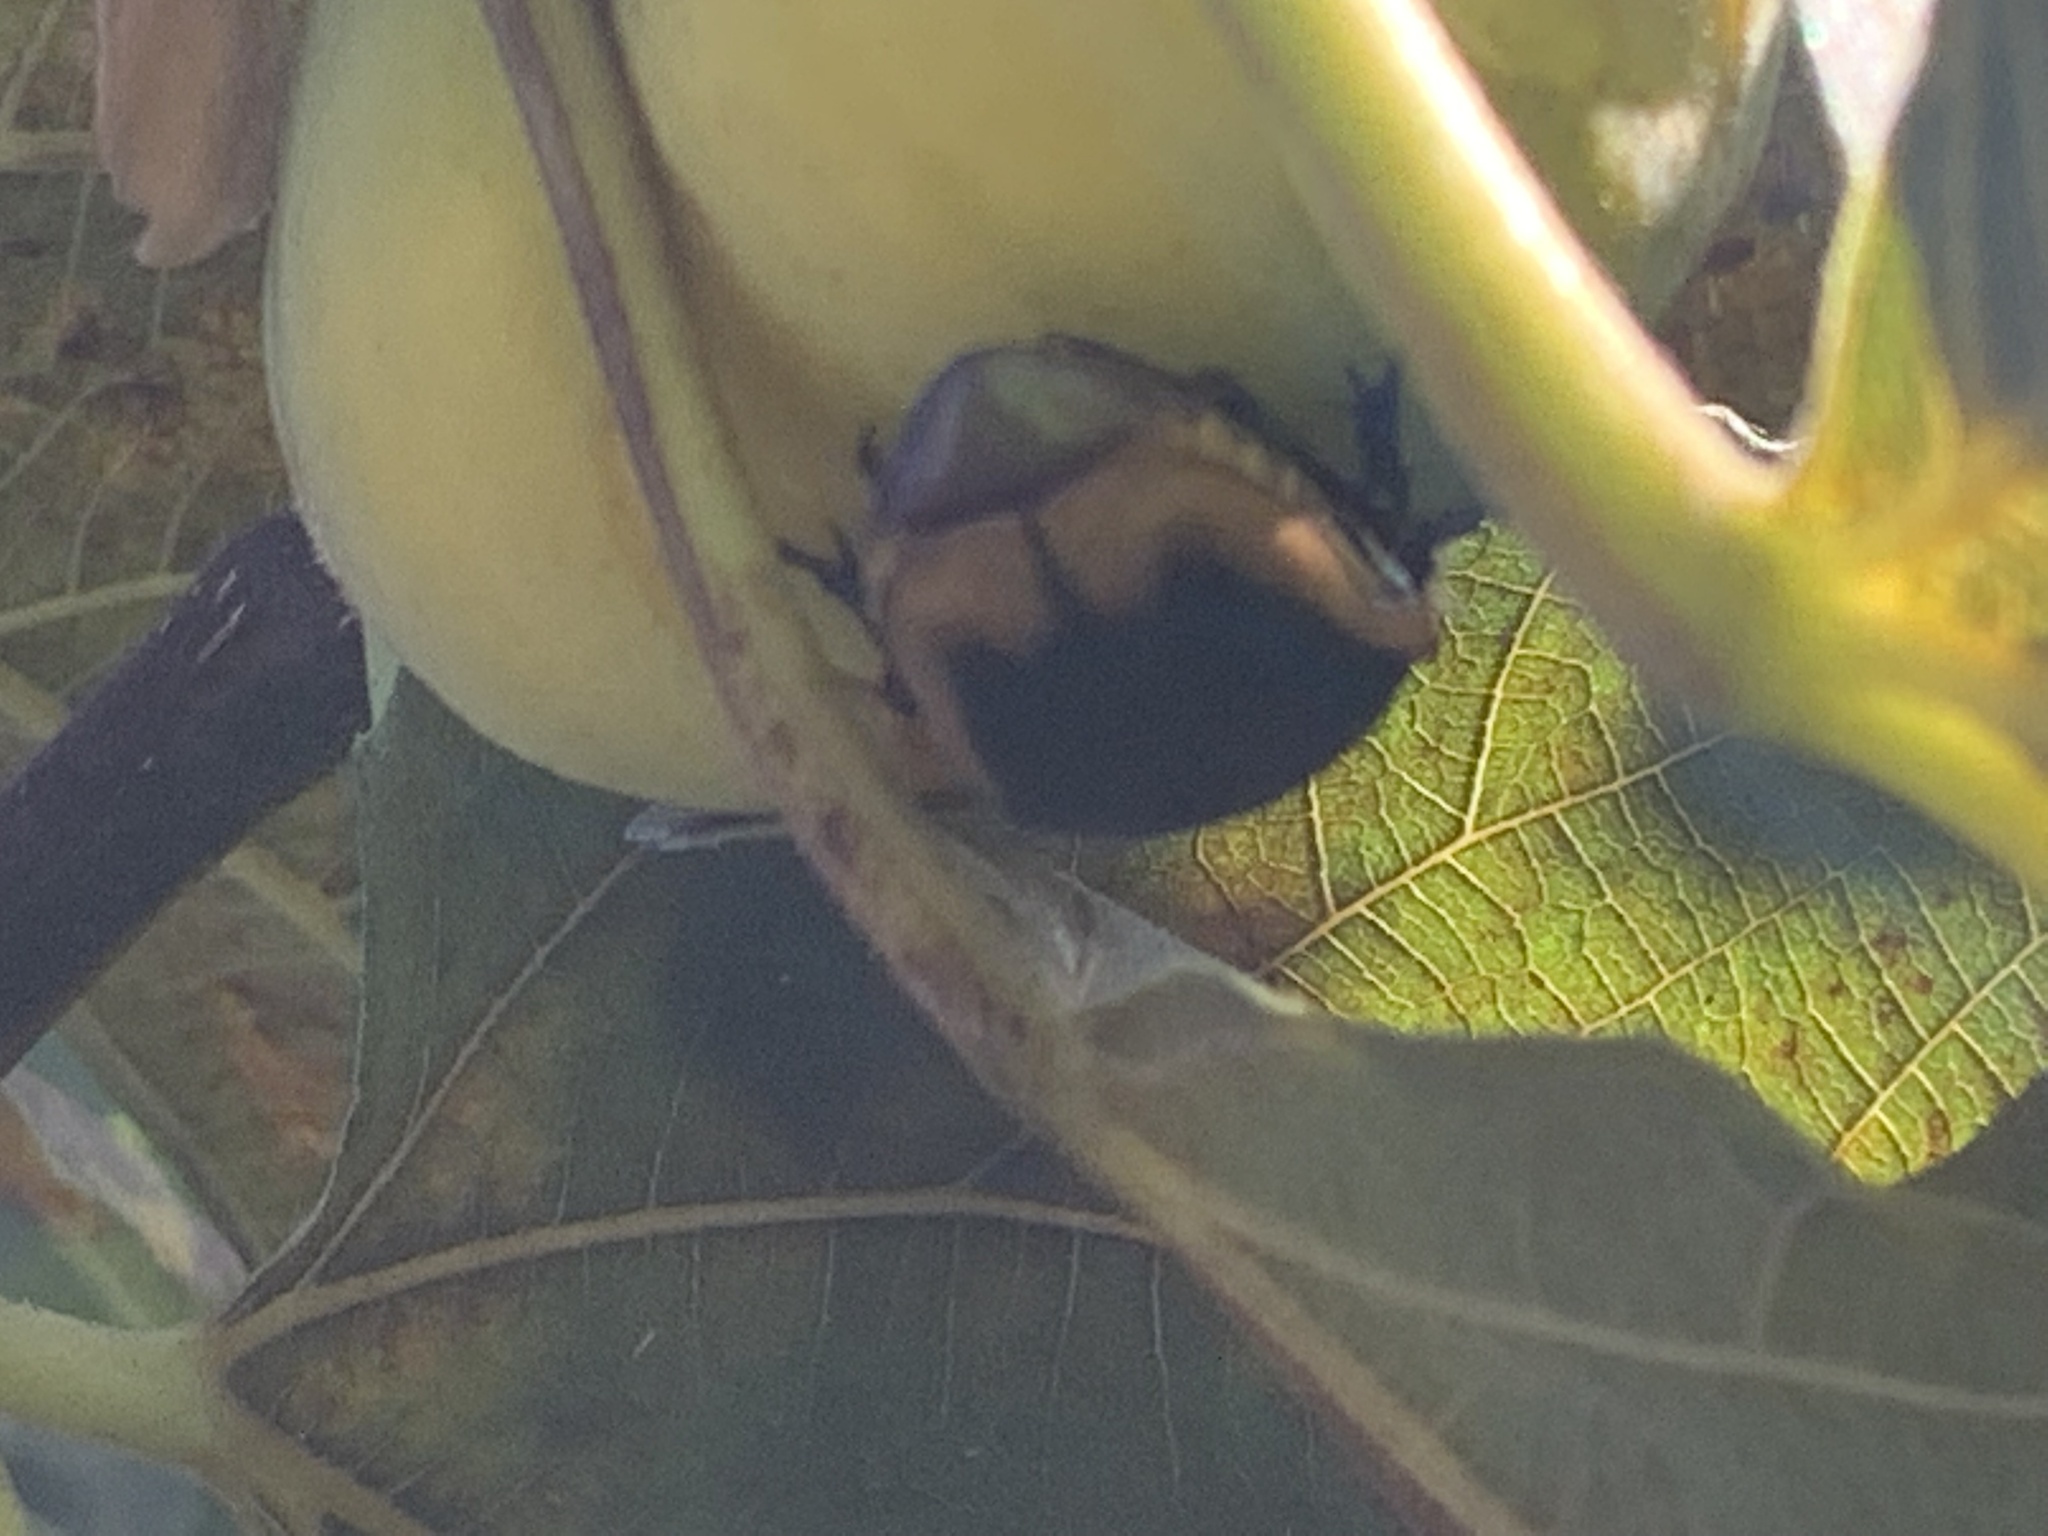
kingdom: Animalia
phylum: Arthropoda
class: Insecta
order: Coleoptera
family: Scarabaeidae
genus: Cotinis
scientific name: Cotinis mutabilis
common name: Figeater beetle
